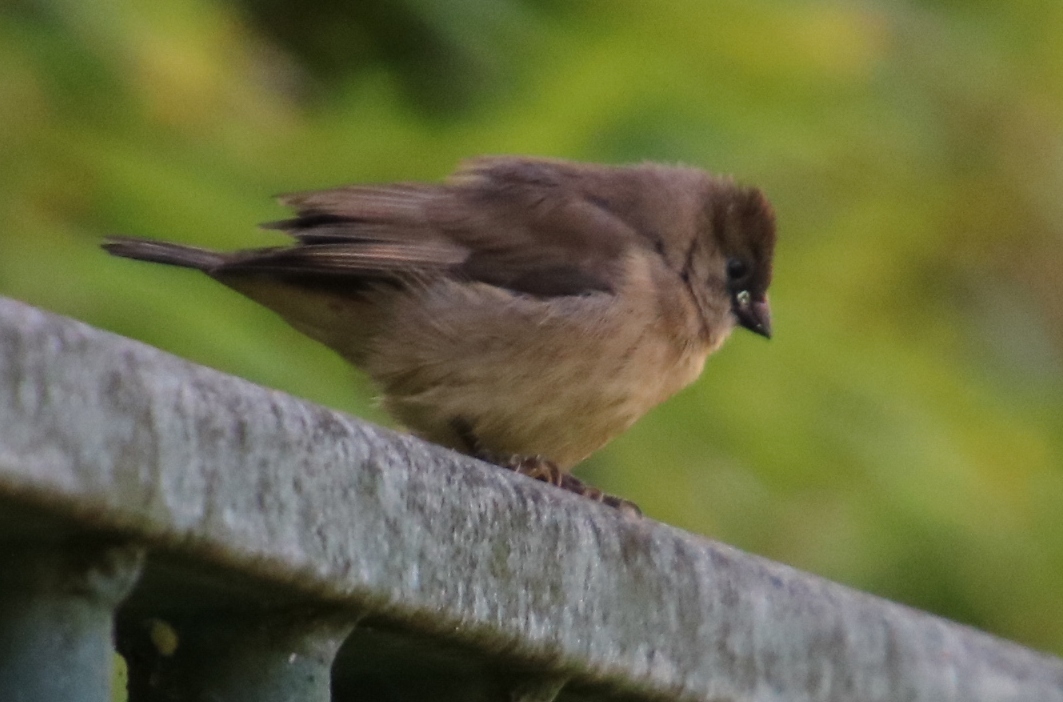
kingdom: Animalia
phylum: Chordata
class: Aves
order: Passeriformes
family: Estrildidae
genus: Lonchura
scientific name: Lonchura cucullata
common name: Bronze mannikin
